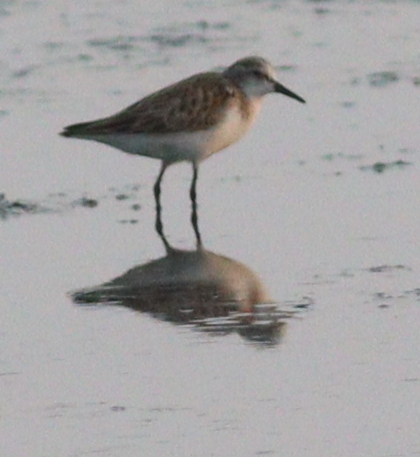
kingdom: Animalia
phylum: Chordata
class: Aves
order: Charadriiformes
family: Scolopacidae
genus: Calidris
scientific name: Calidris minuta
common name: Little stint
